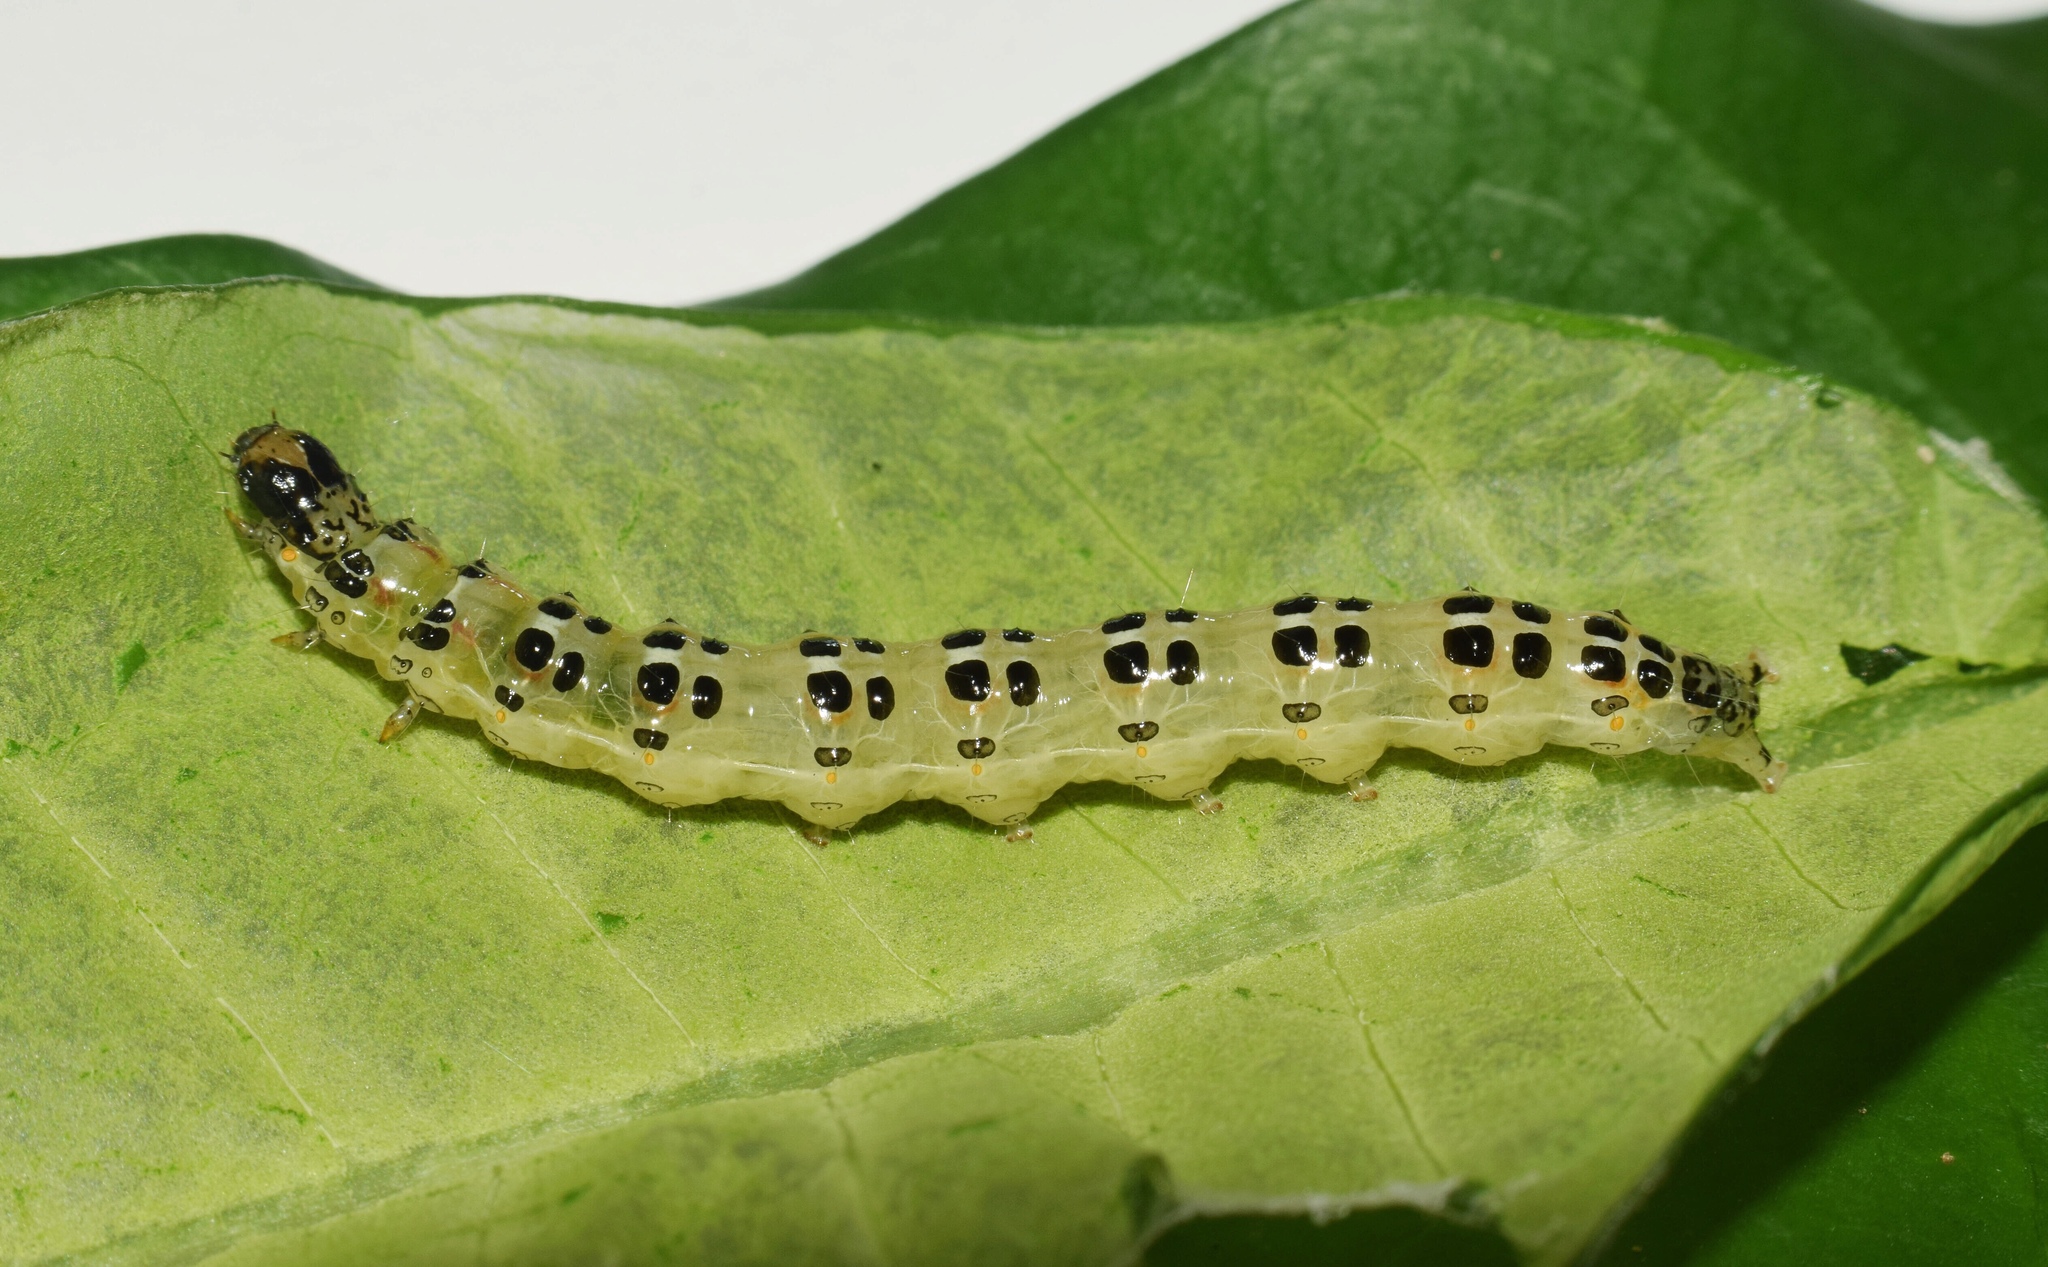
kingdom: Animalia
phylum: Arthropoda
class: Insecta
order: Lepidoptera
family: Crambidae
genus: Stemorrhages
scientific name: Stemorrhages sericea
